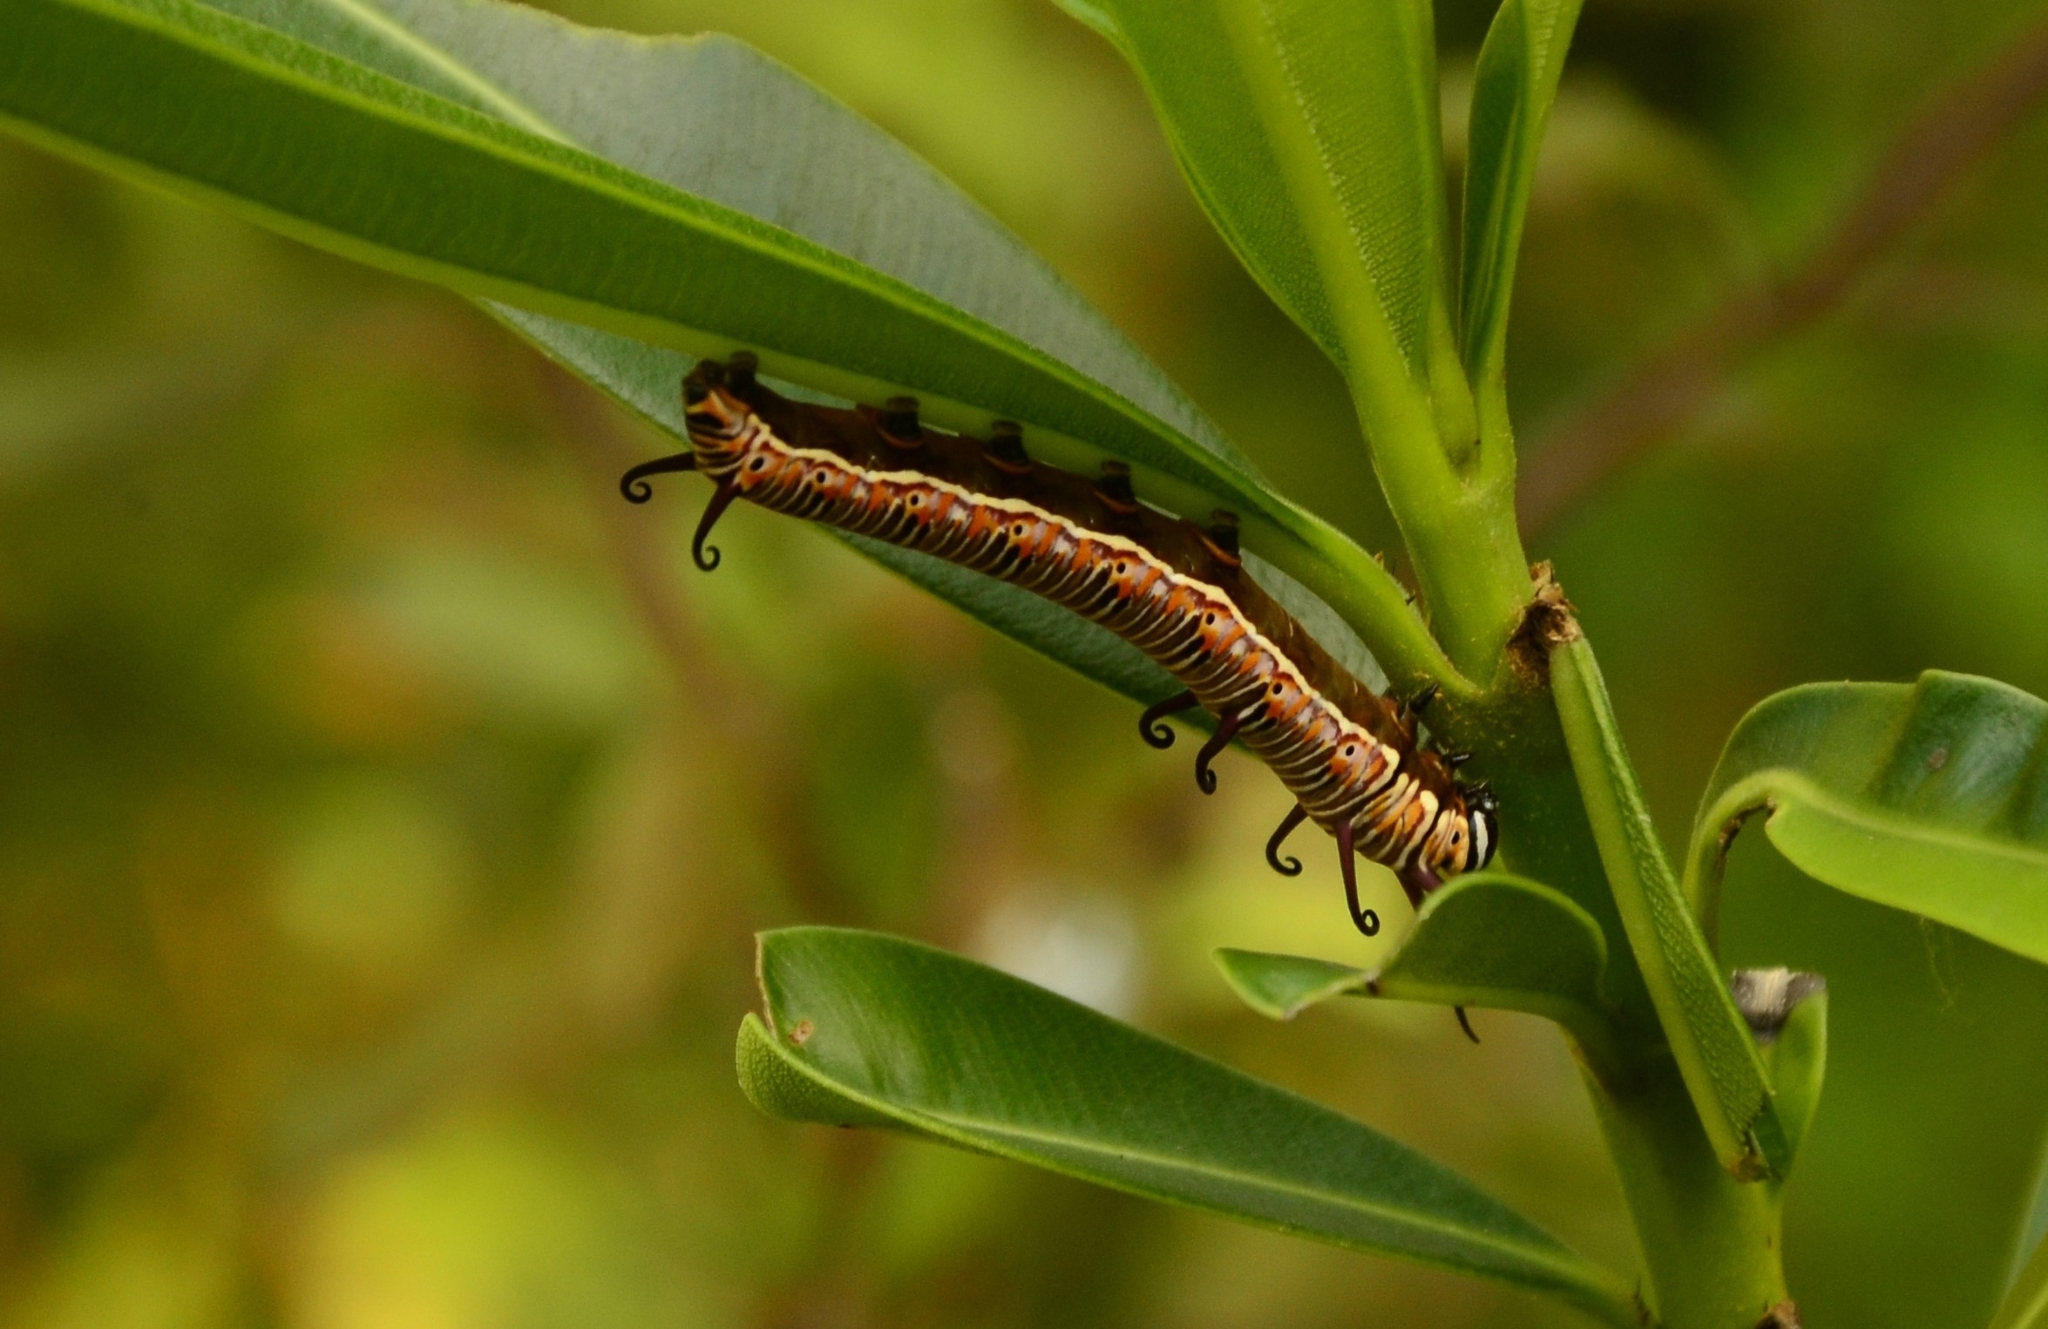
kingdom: Animalia
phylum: Arthropoda
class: Insecta
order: Lepidoptera
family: Nymphalidae
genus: Euploea
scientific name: Euploea core
